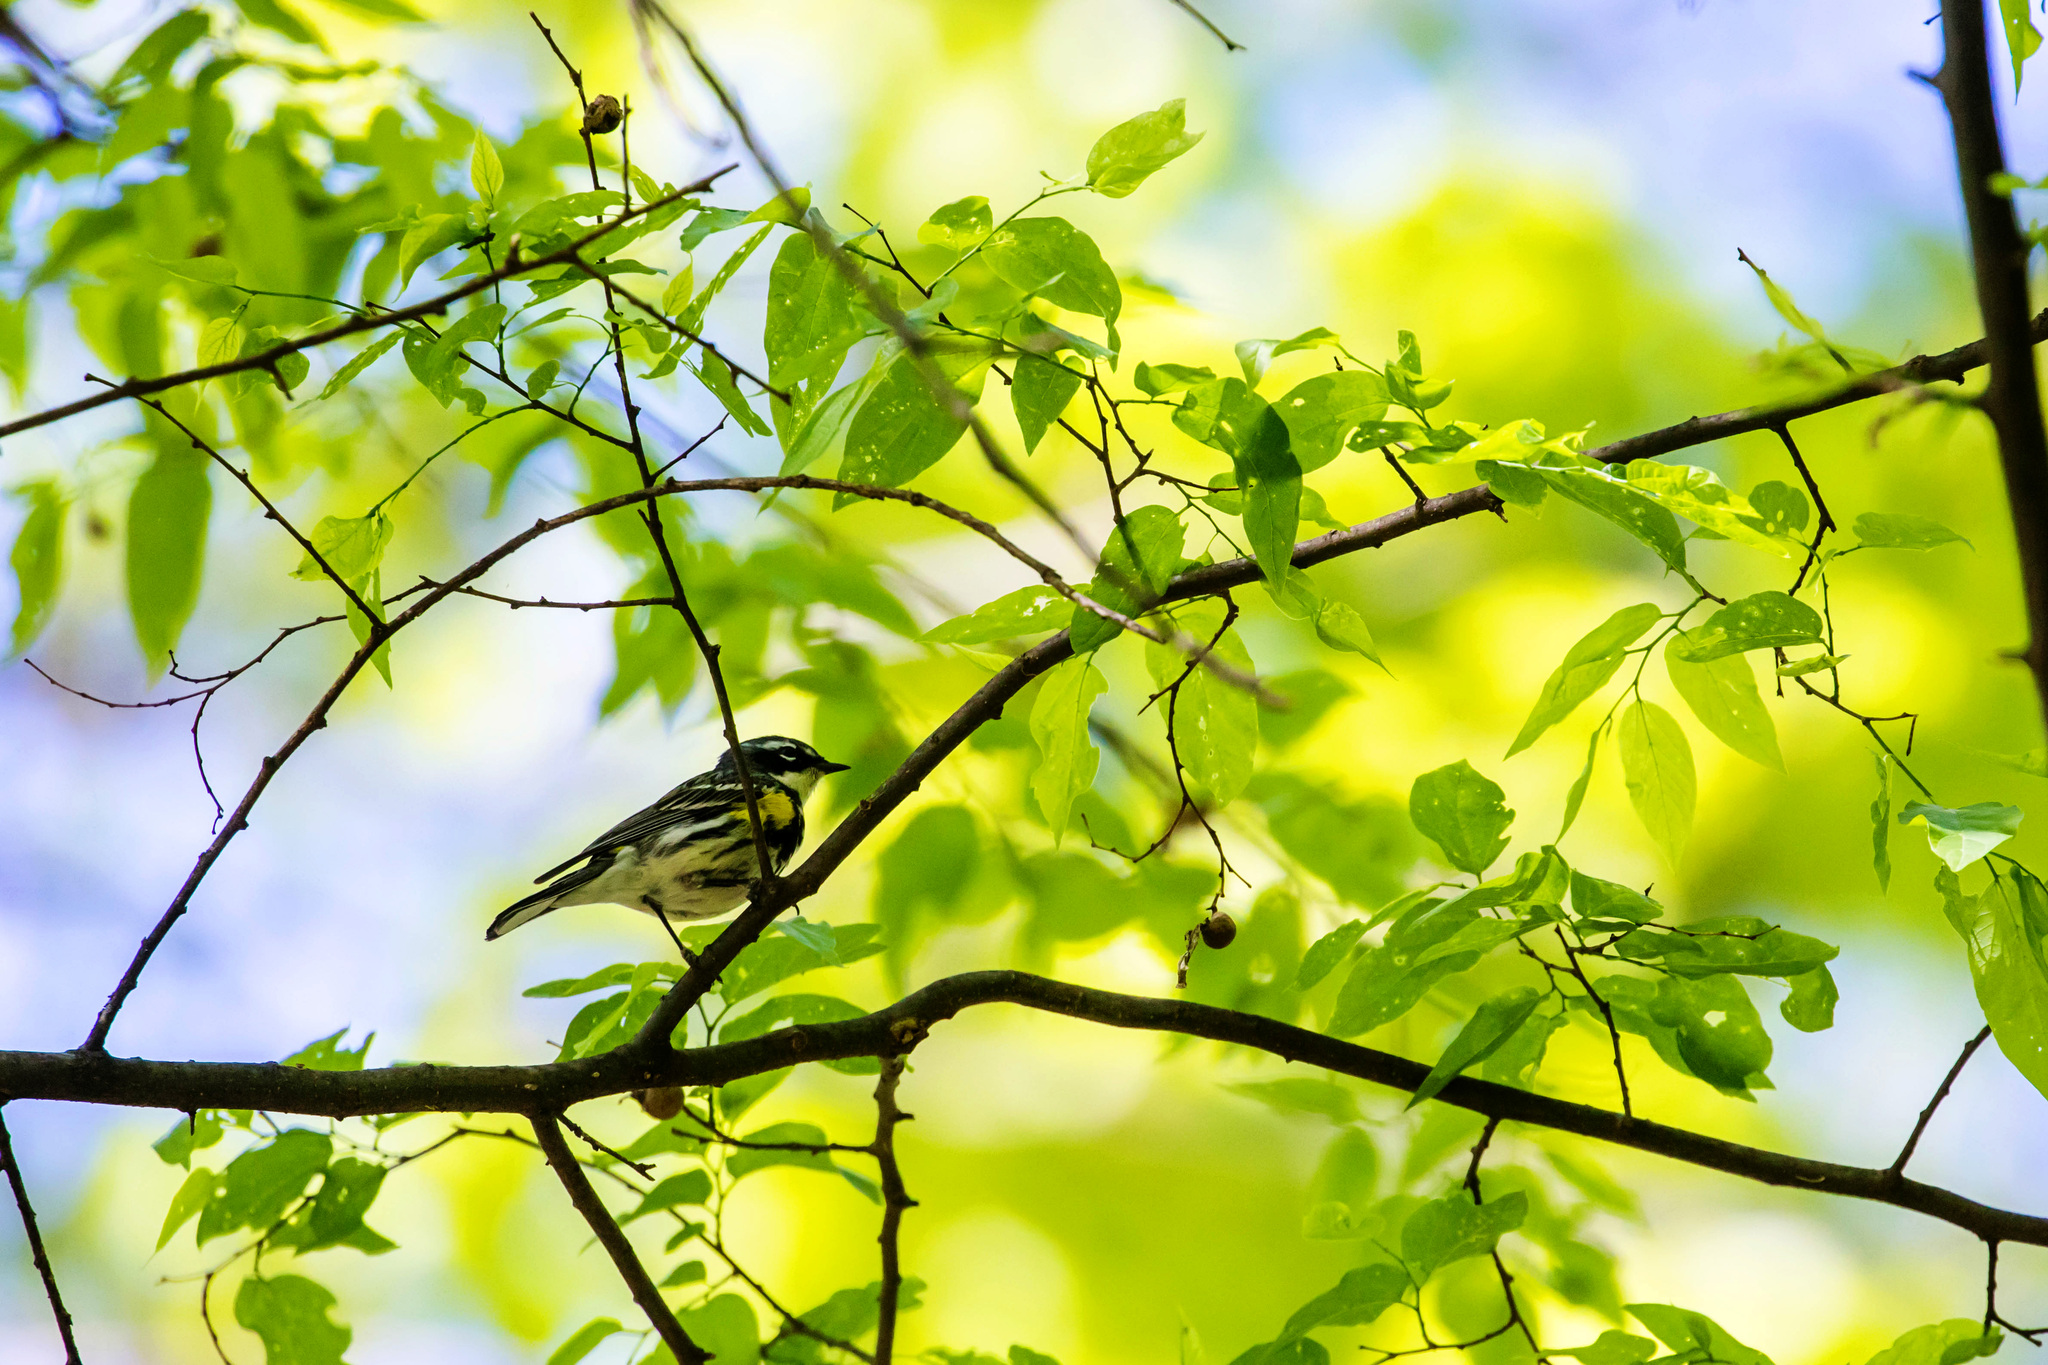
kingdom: Animalia
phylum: Chordata
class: Aves
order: Passeriformes
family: Parulidae
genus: Setophaga
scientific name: Setophaga coronata
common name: Myrtle warbler
